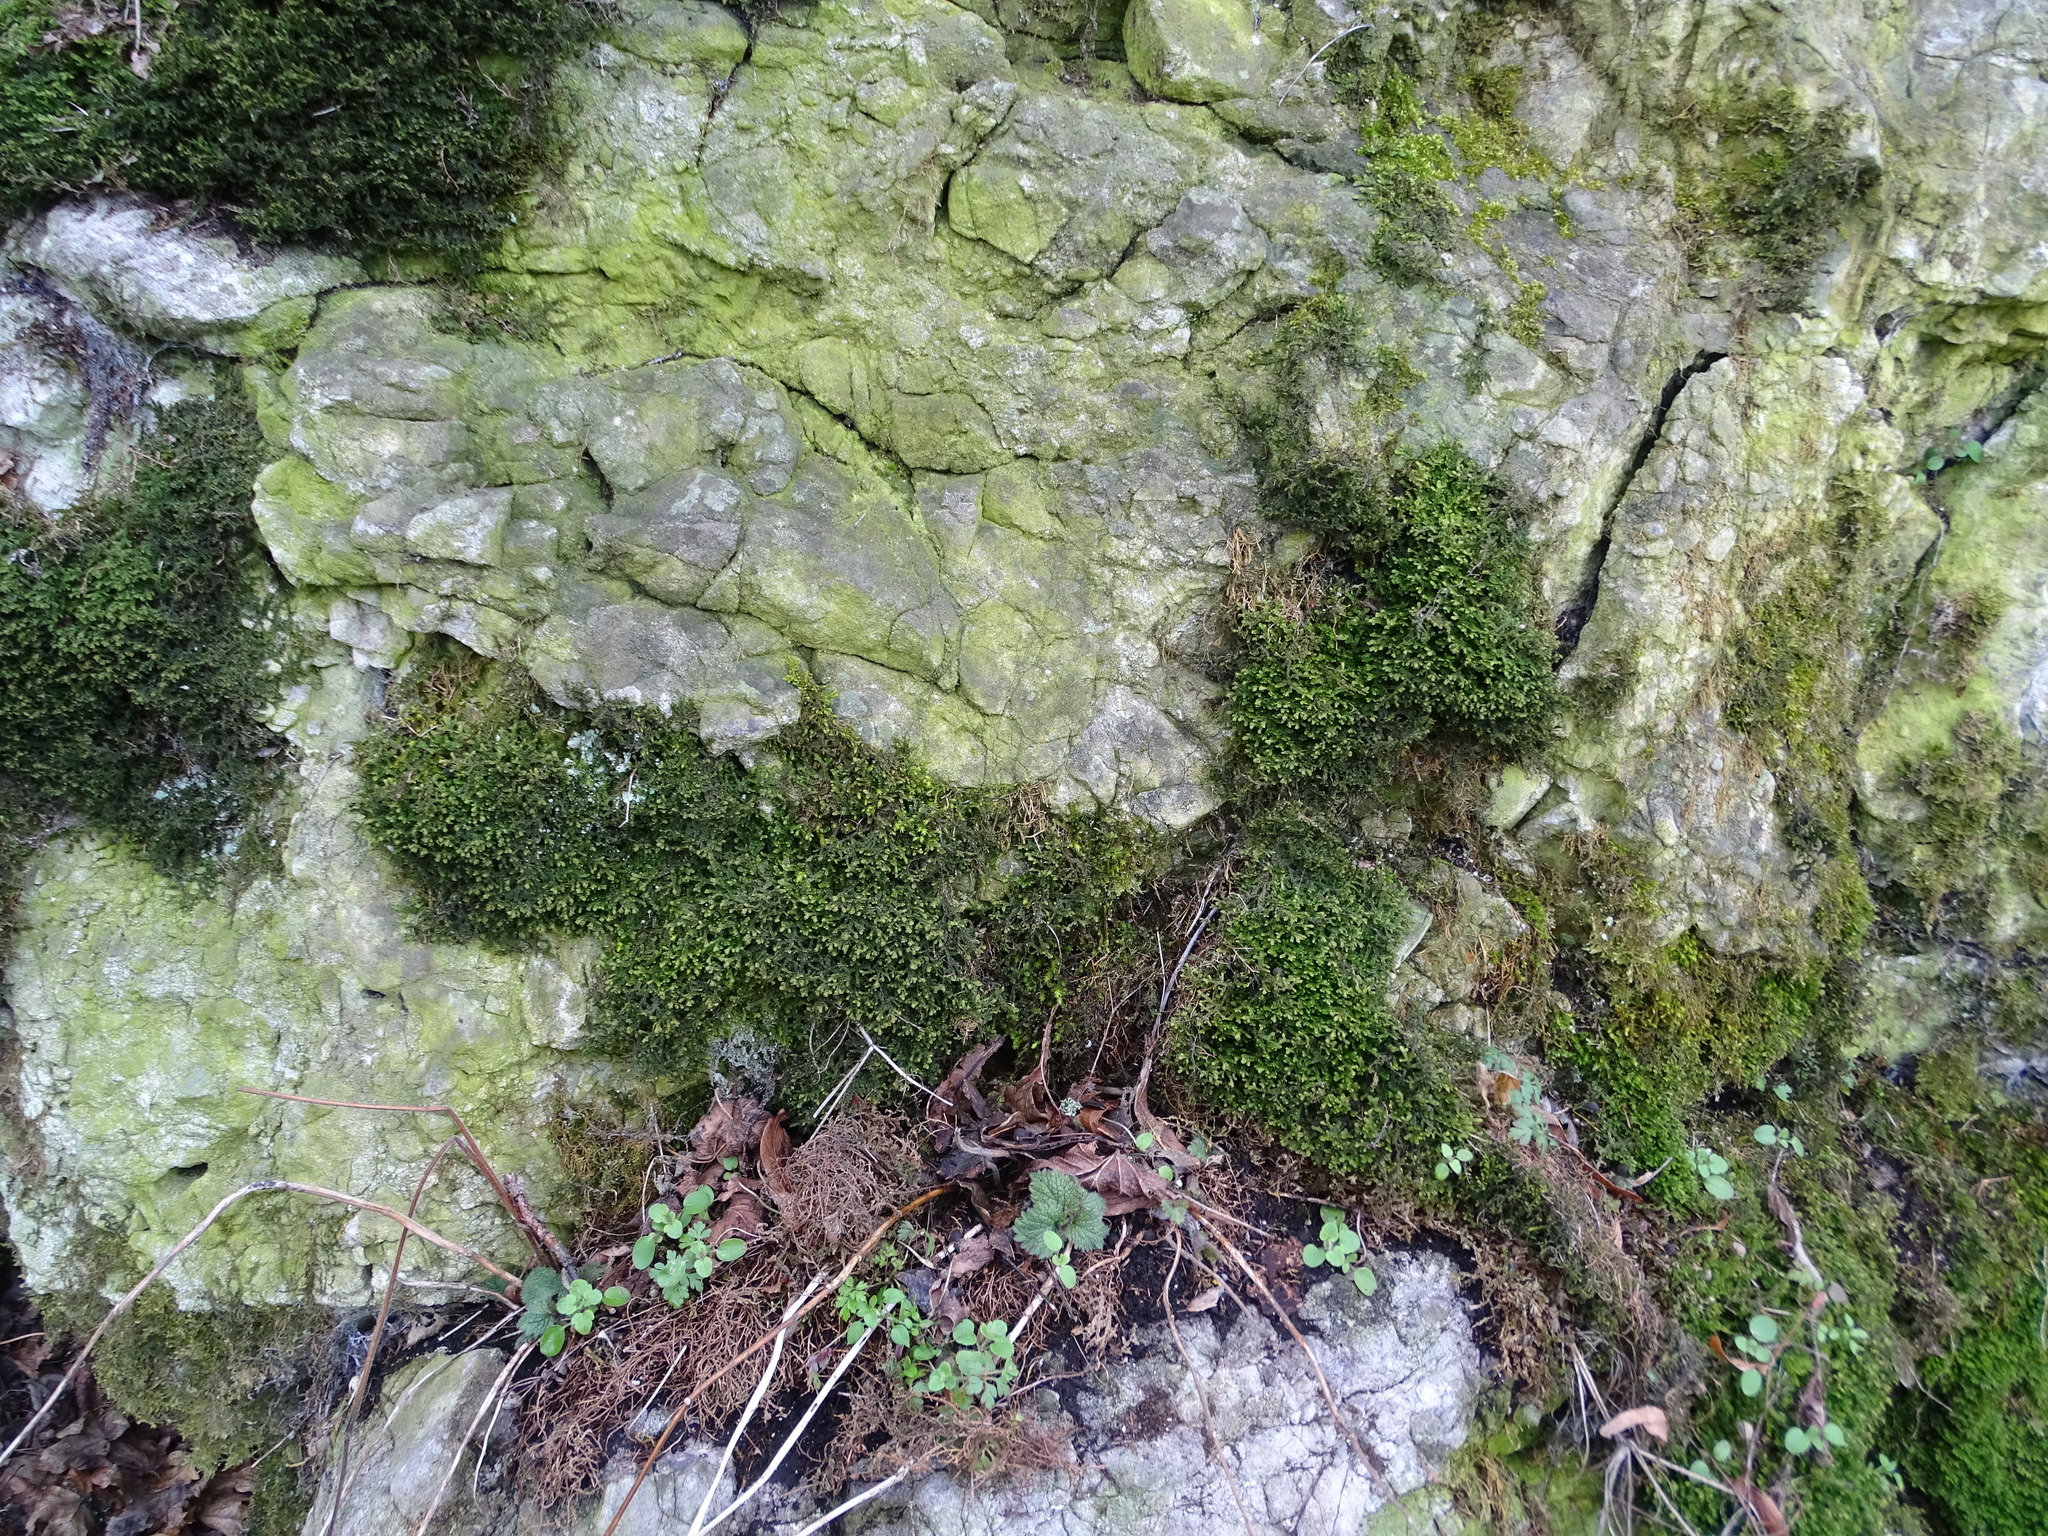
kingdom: Plantae
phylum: Marchantiophyta
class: Jungermanniopsida
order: Porellales
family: Porellaceae
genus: Porella
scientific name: Porella platyphylla
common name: Wall scalewort
